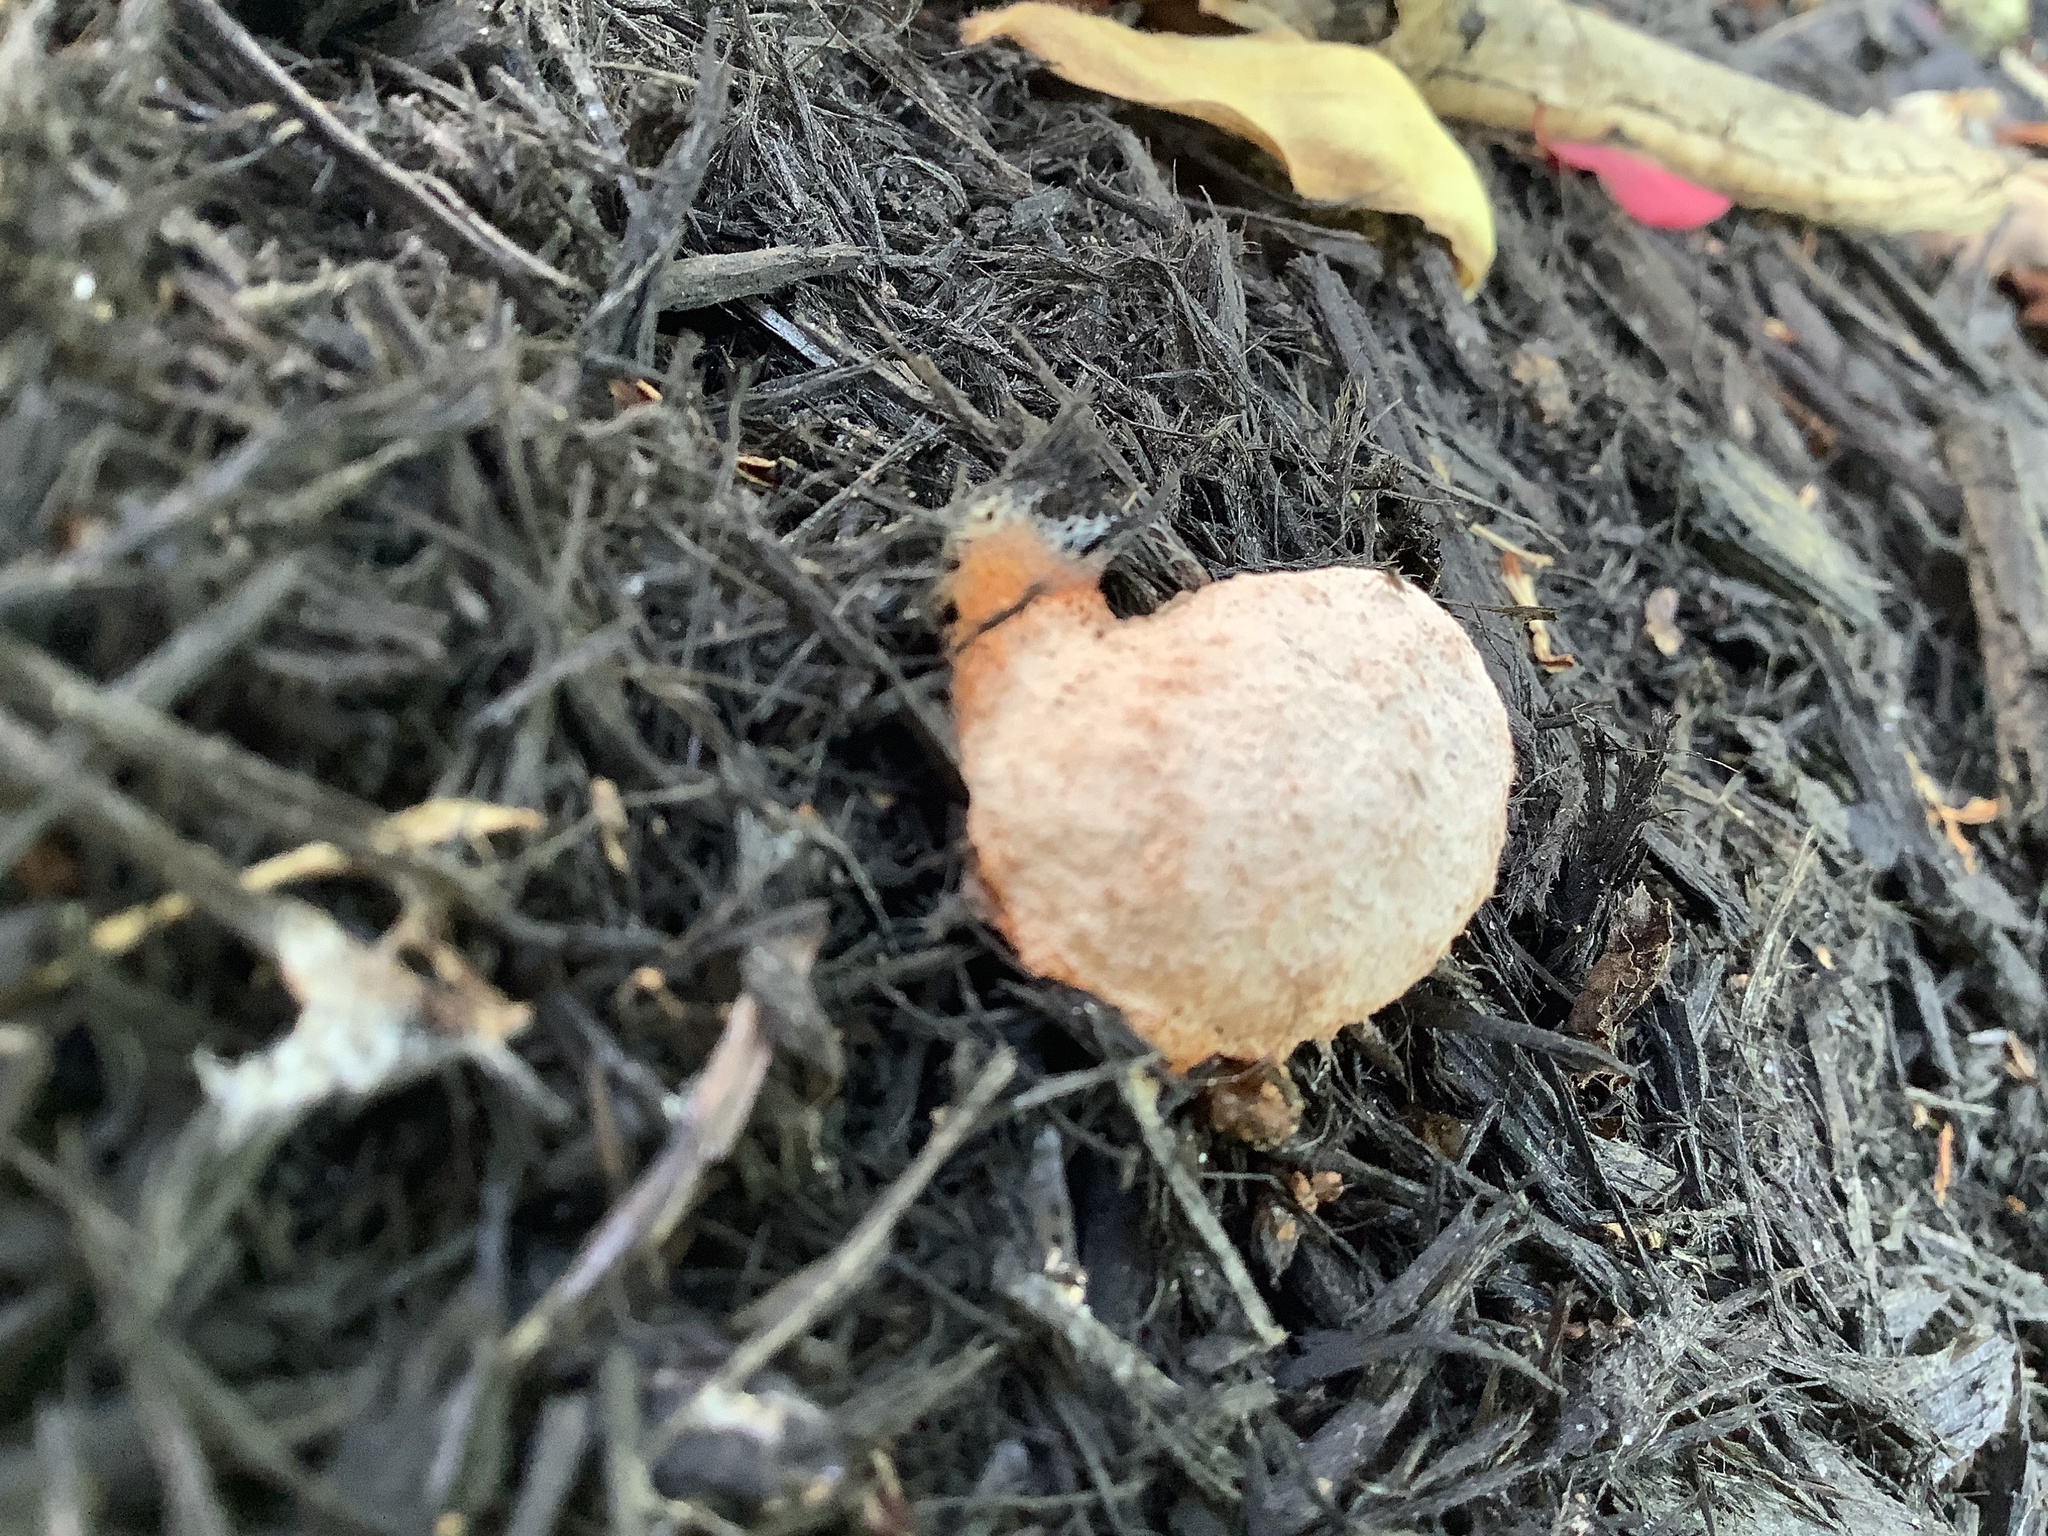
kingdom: Protozoa
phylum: Mycetozoa
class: Myxomycetes
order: Physarales
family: Physaraceae
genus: Fuligo
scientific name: Fuligo septica
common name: Dog vomit slime mold
